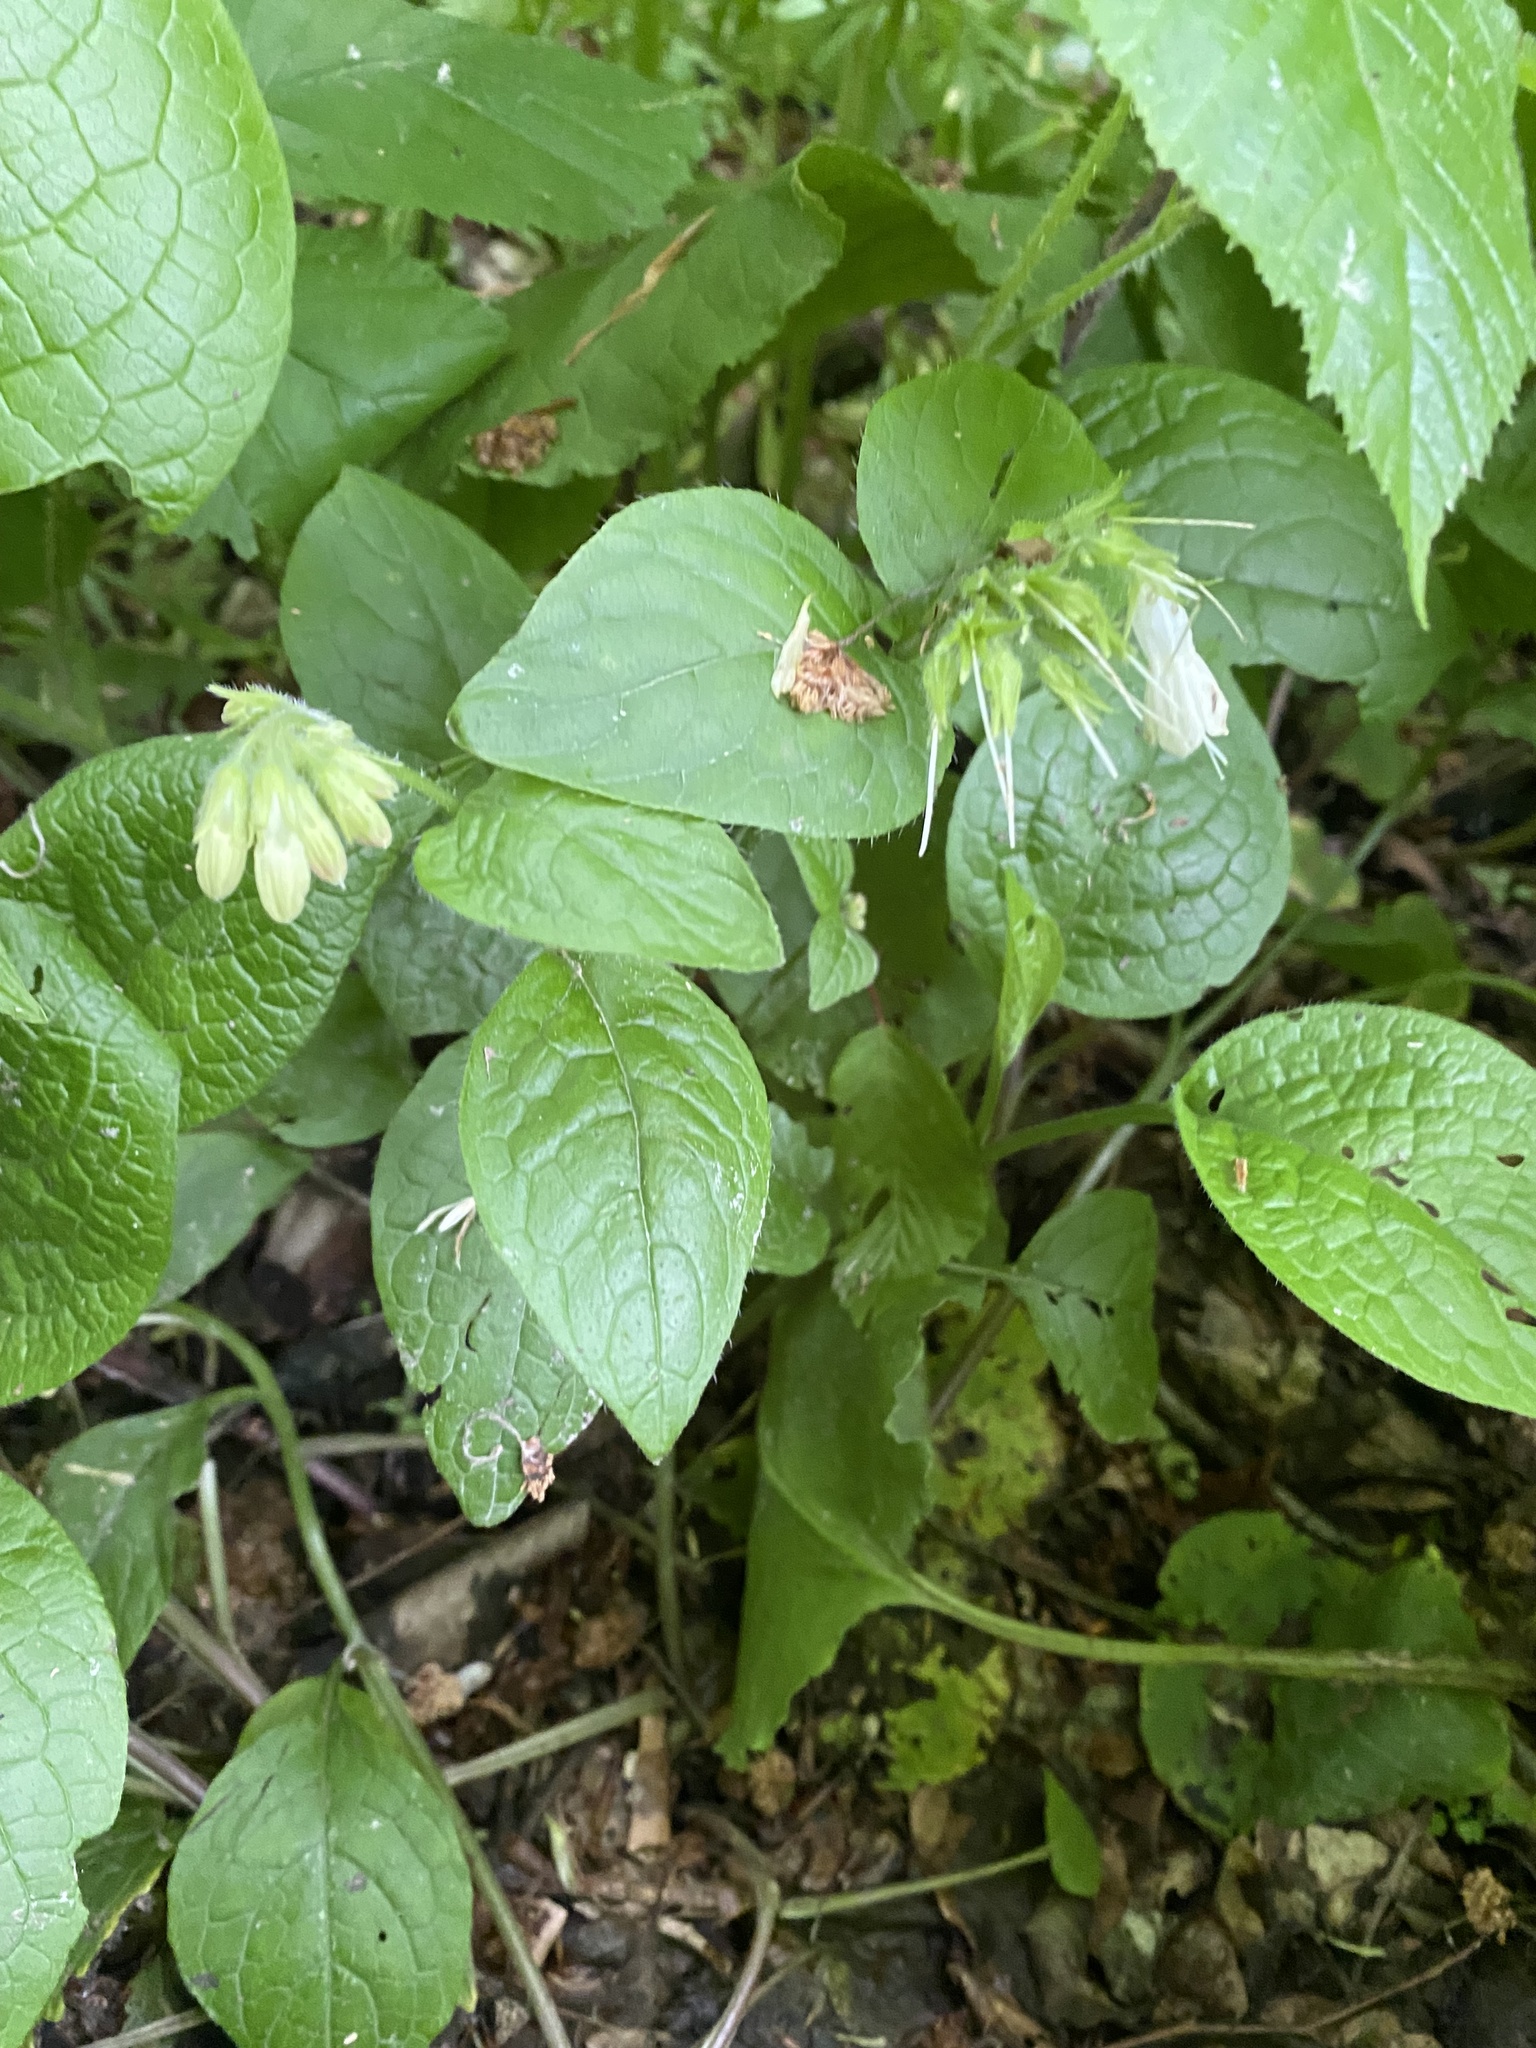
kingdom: Plantae
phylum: Tracheophyta
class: Magnoliopsida
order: Boraginales
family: Boraginaceae
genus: Symphytum
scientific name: Symphytum grandiflorum
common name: Creeping comfrey
